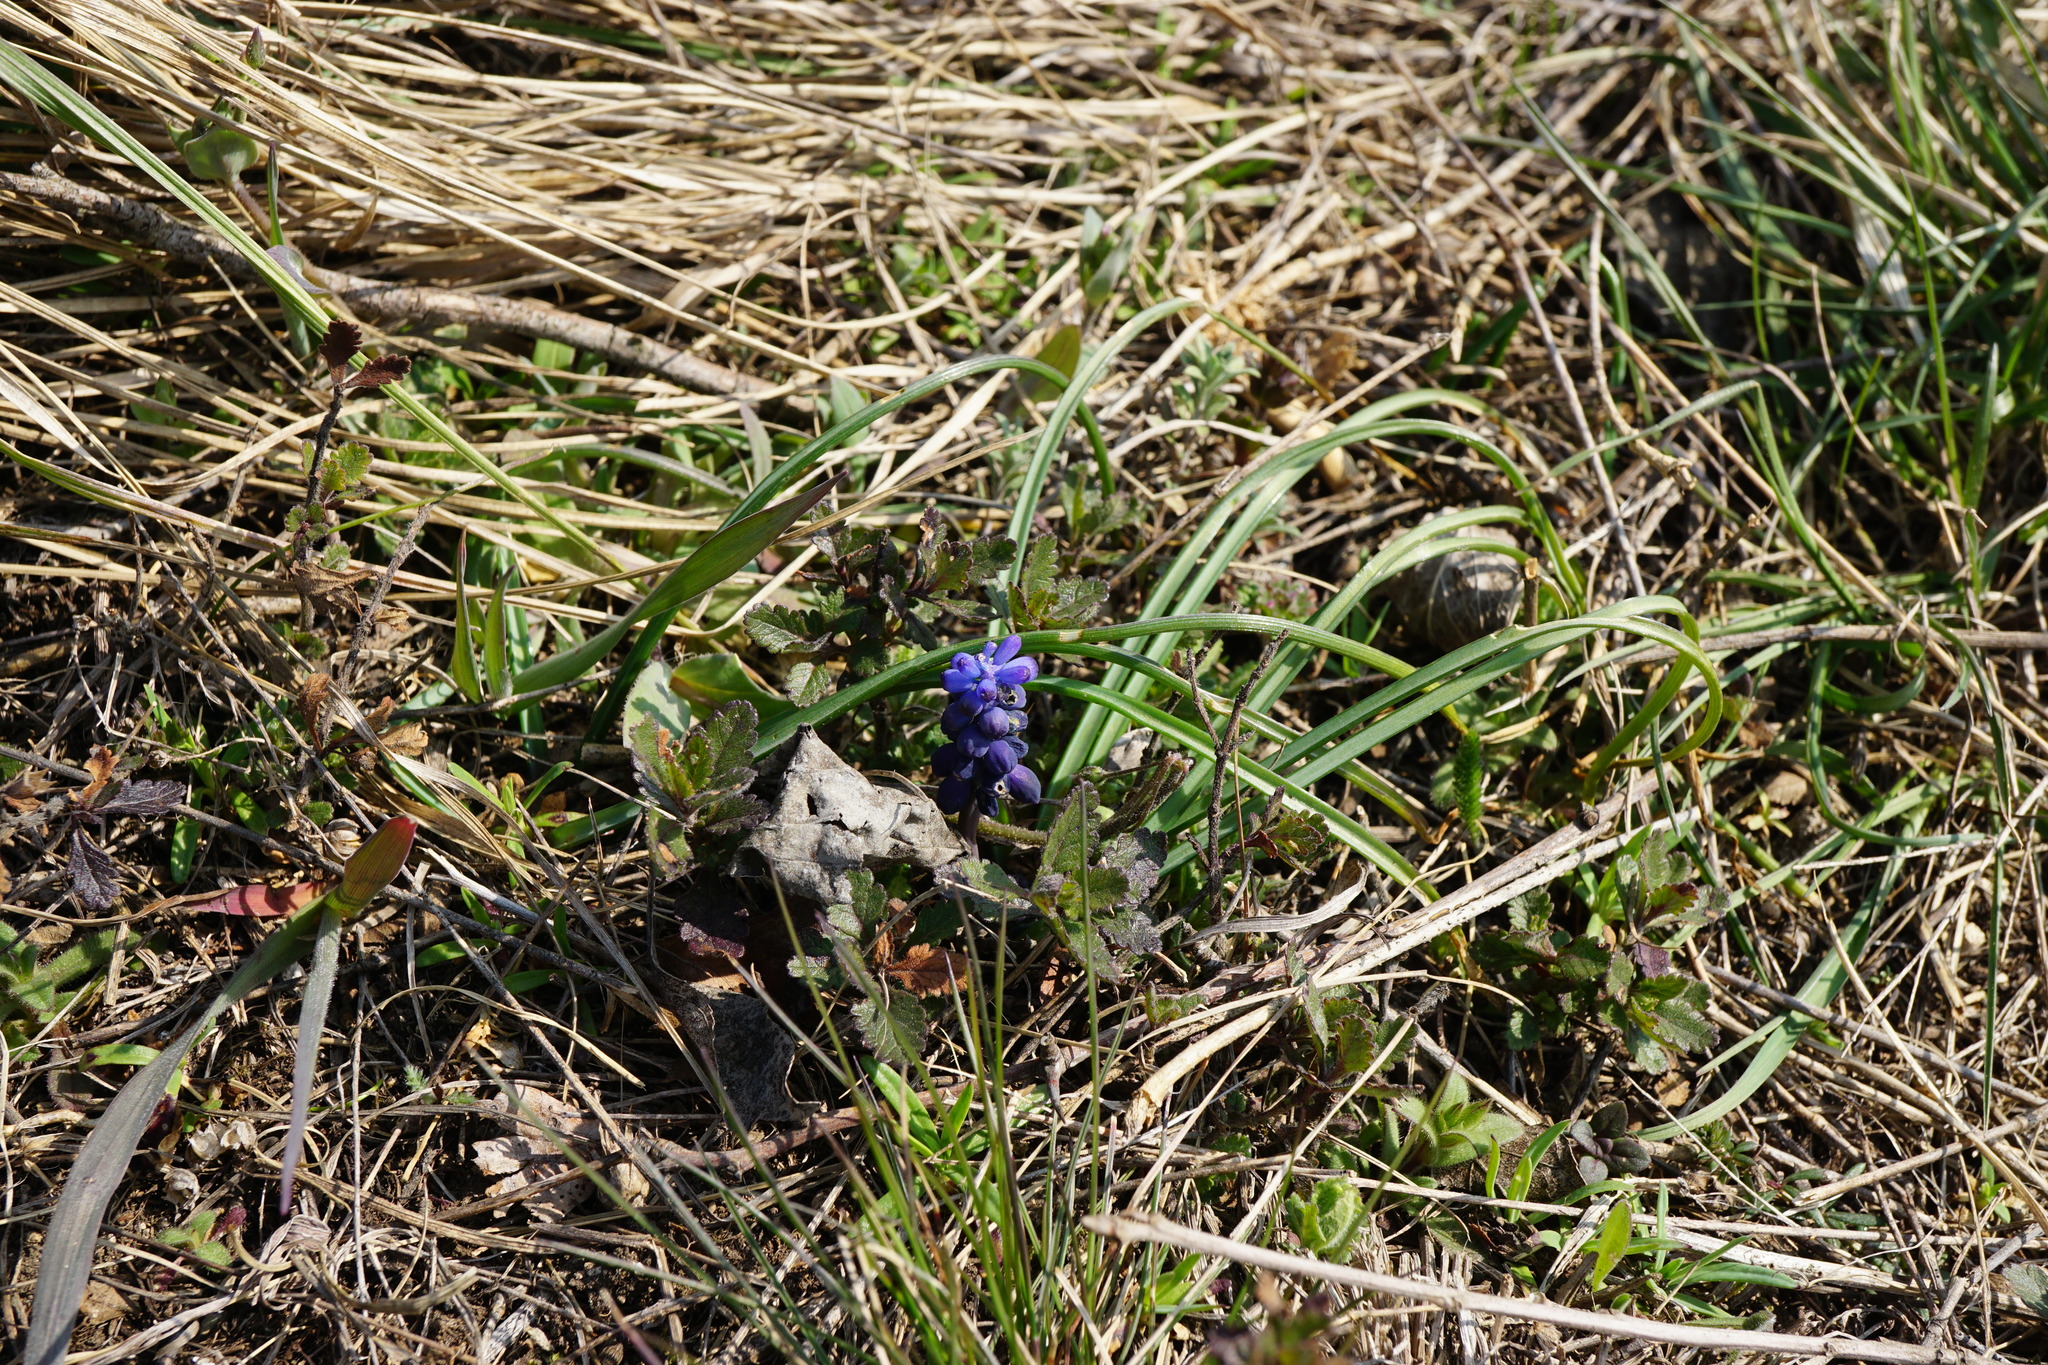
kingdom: Plantae
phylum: Tracheophyta
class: Liliopsida
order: Asparagales
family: Asparagaceae
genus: Muscari
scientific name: Muscari neglectum
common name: Grape-hyacinth
